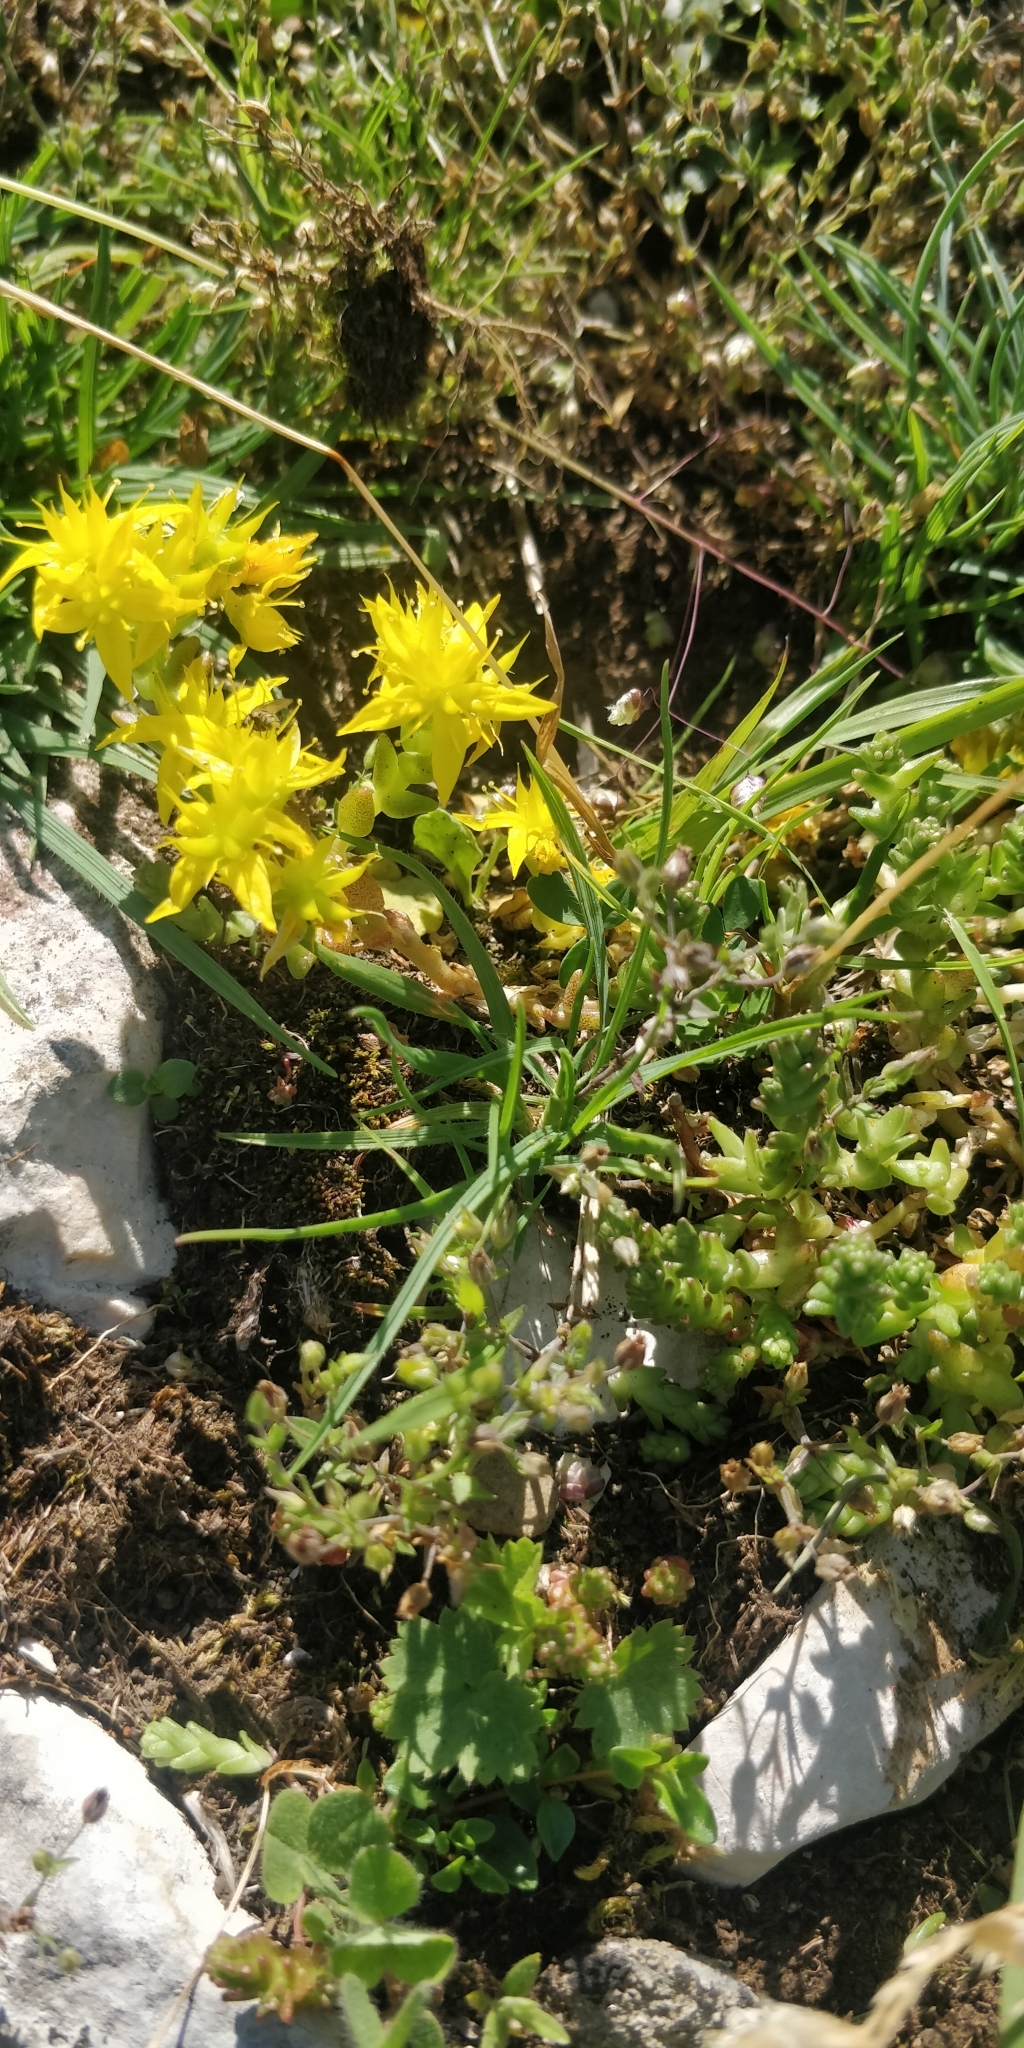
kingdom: Plantae
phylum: Tracheophyta
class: Magnoliopsida
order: Saxifragales
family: Crassulaceae
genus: Sedum
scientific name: Sedum acre
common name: Biting stonecrop
